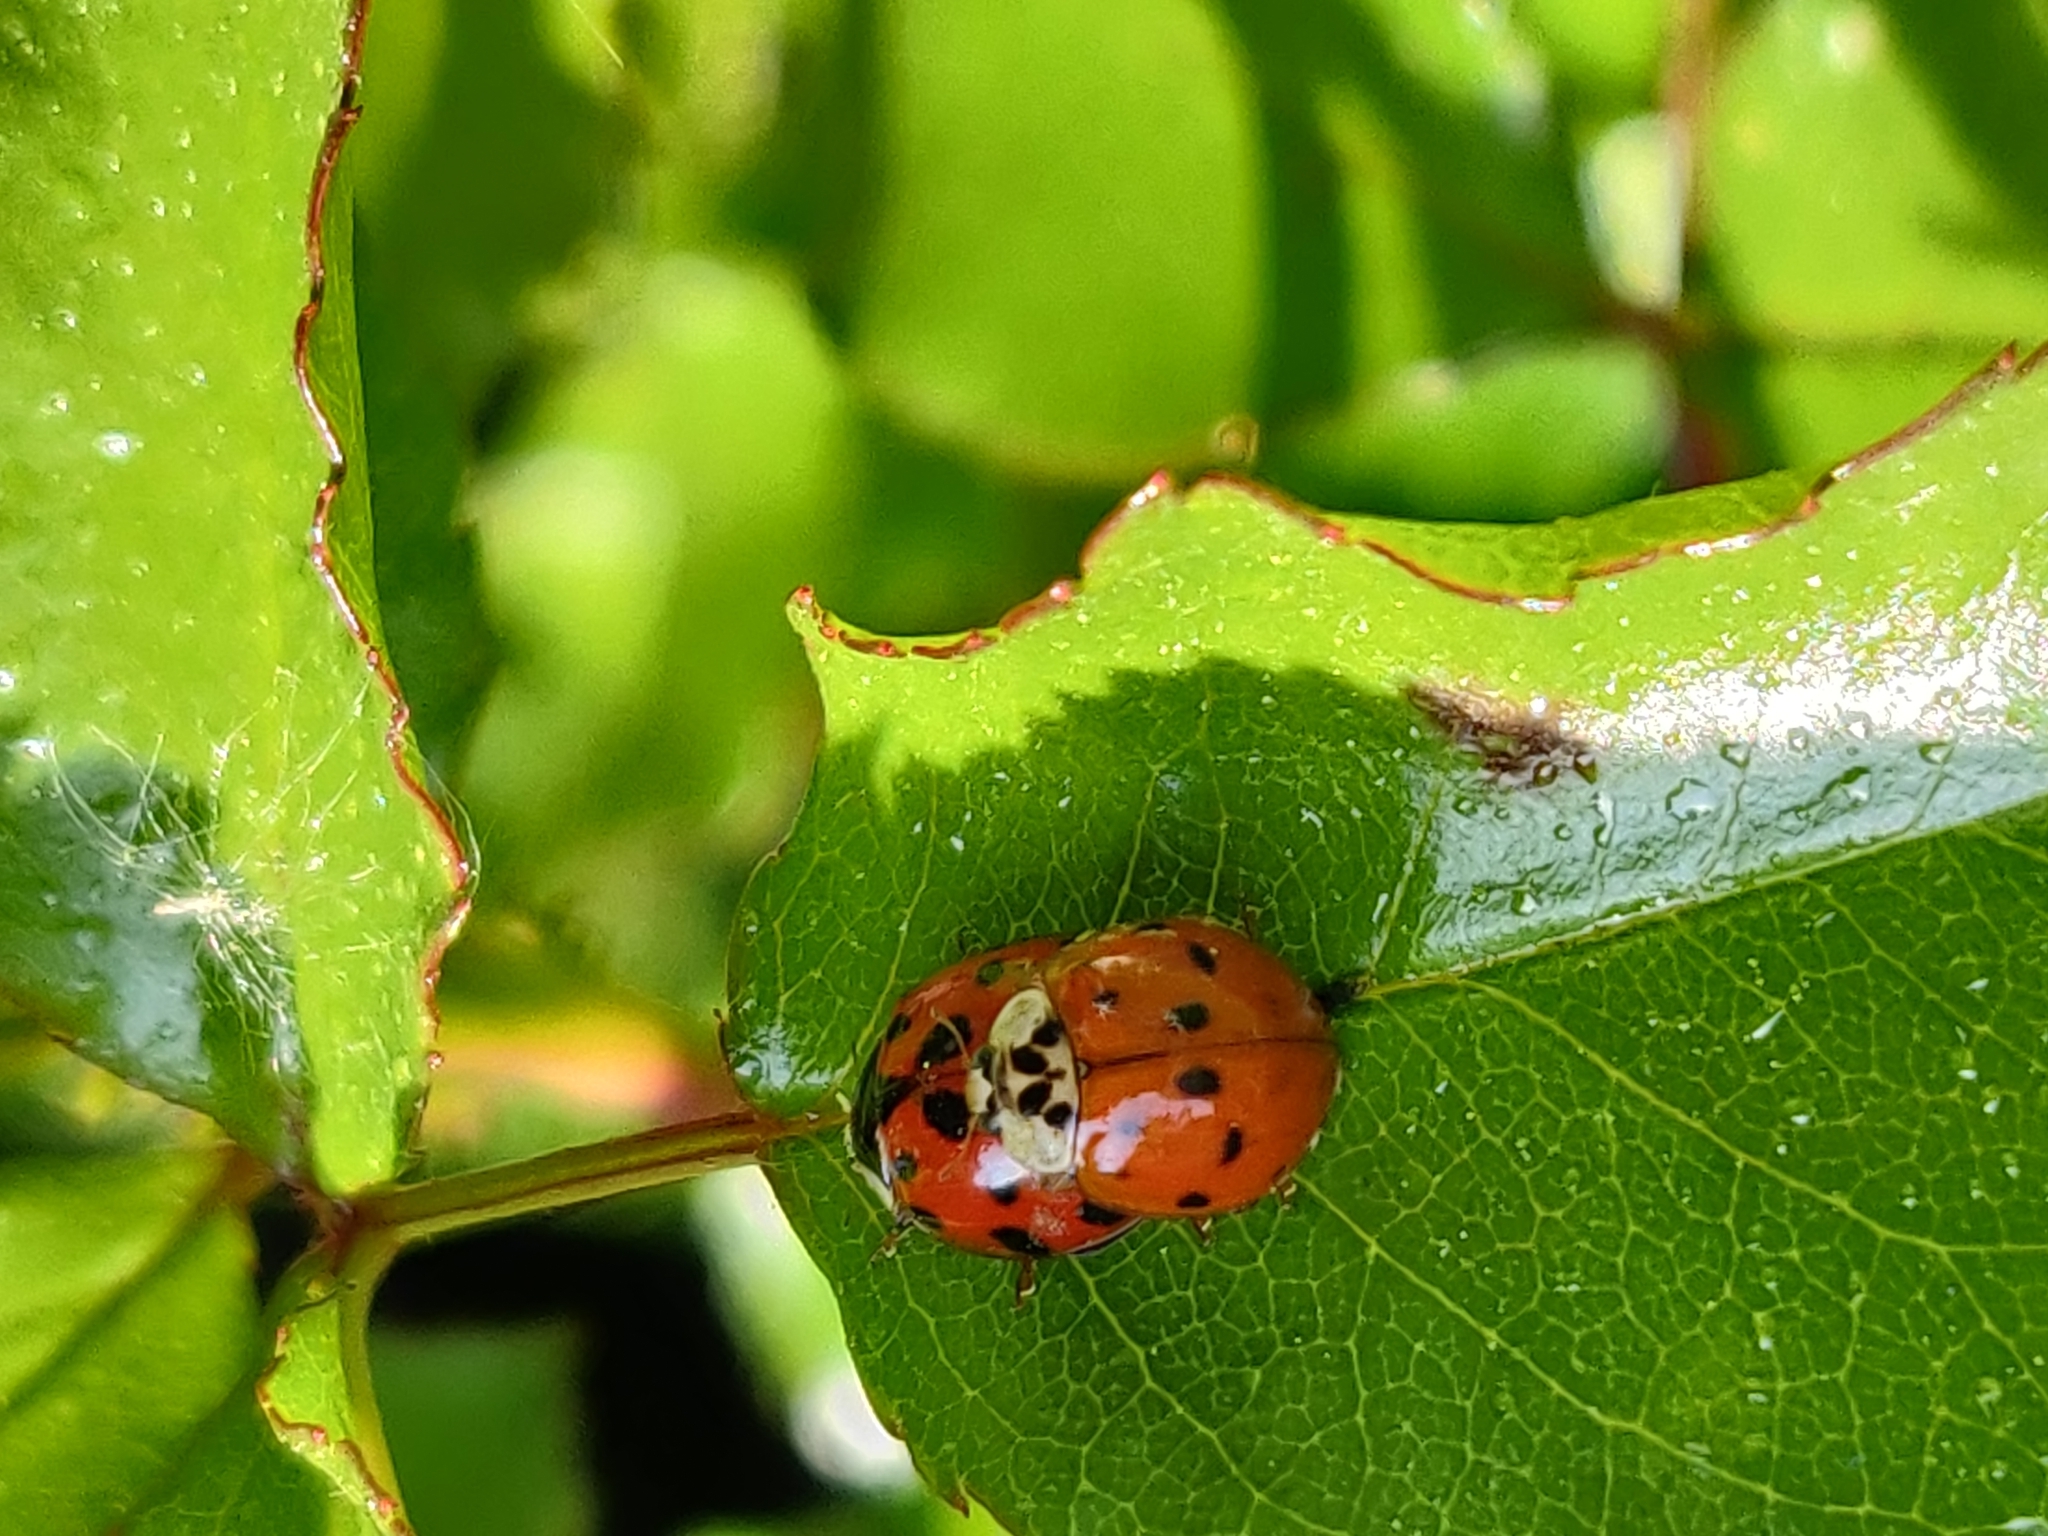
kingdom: Animalia
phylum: Arthropoda
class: Insecta
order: Coleoptera
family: Coccinellidae
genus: Harmonia
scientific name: Harmonia axyridis
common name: Harlequin ladybird
